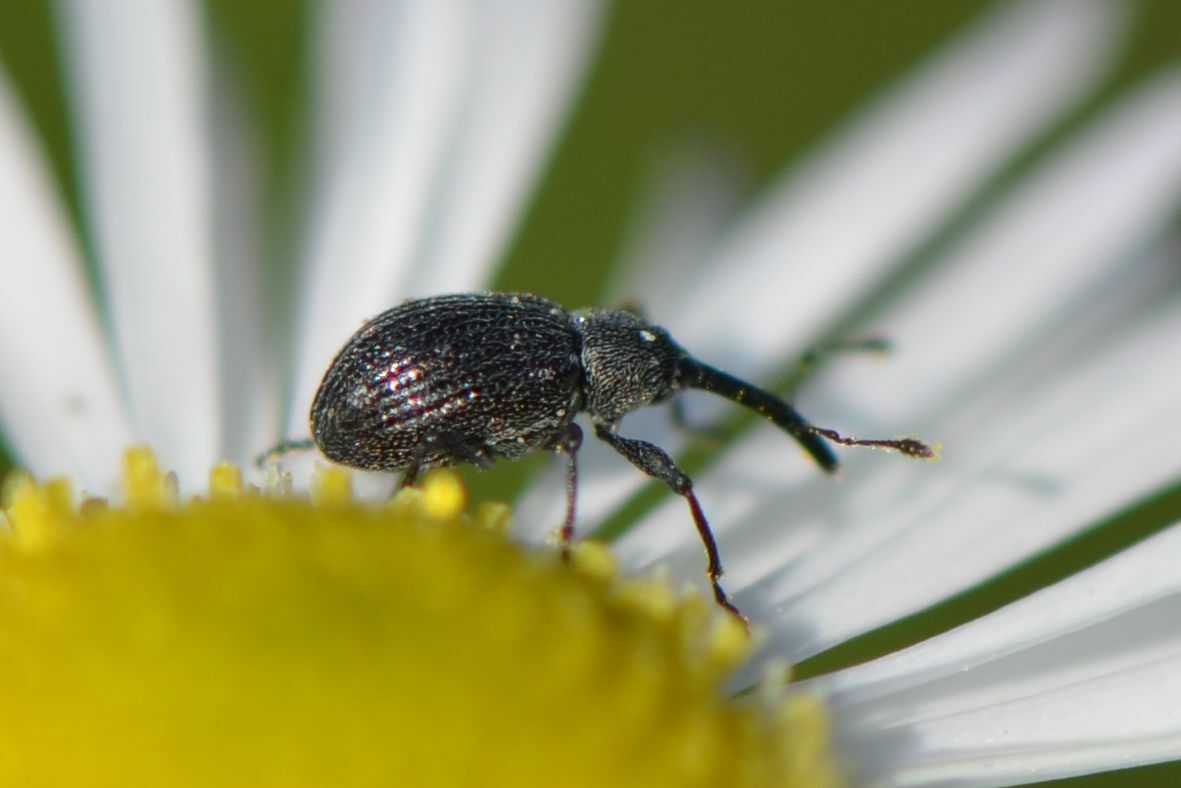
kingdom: Animalia
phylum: Arthropoda
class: Insecta
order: Coleoptera
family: Curculionidae
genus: Anthonomus
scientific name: Anthonomus rubi
